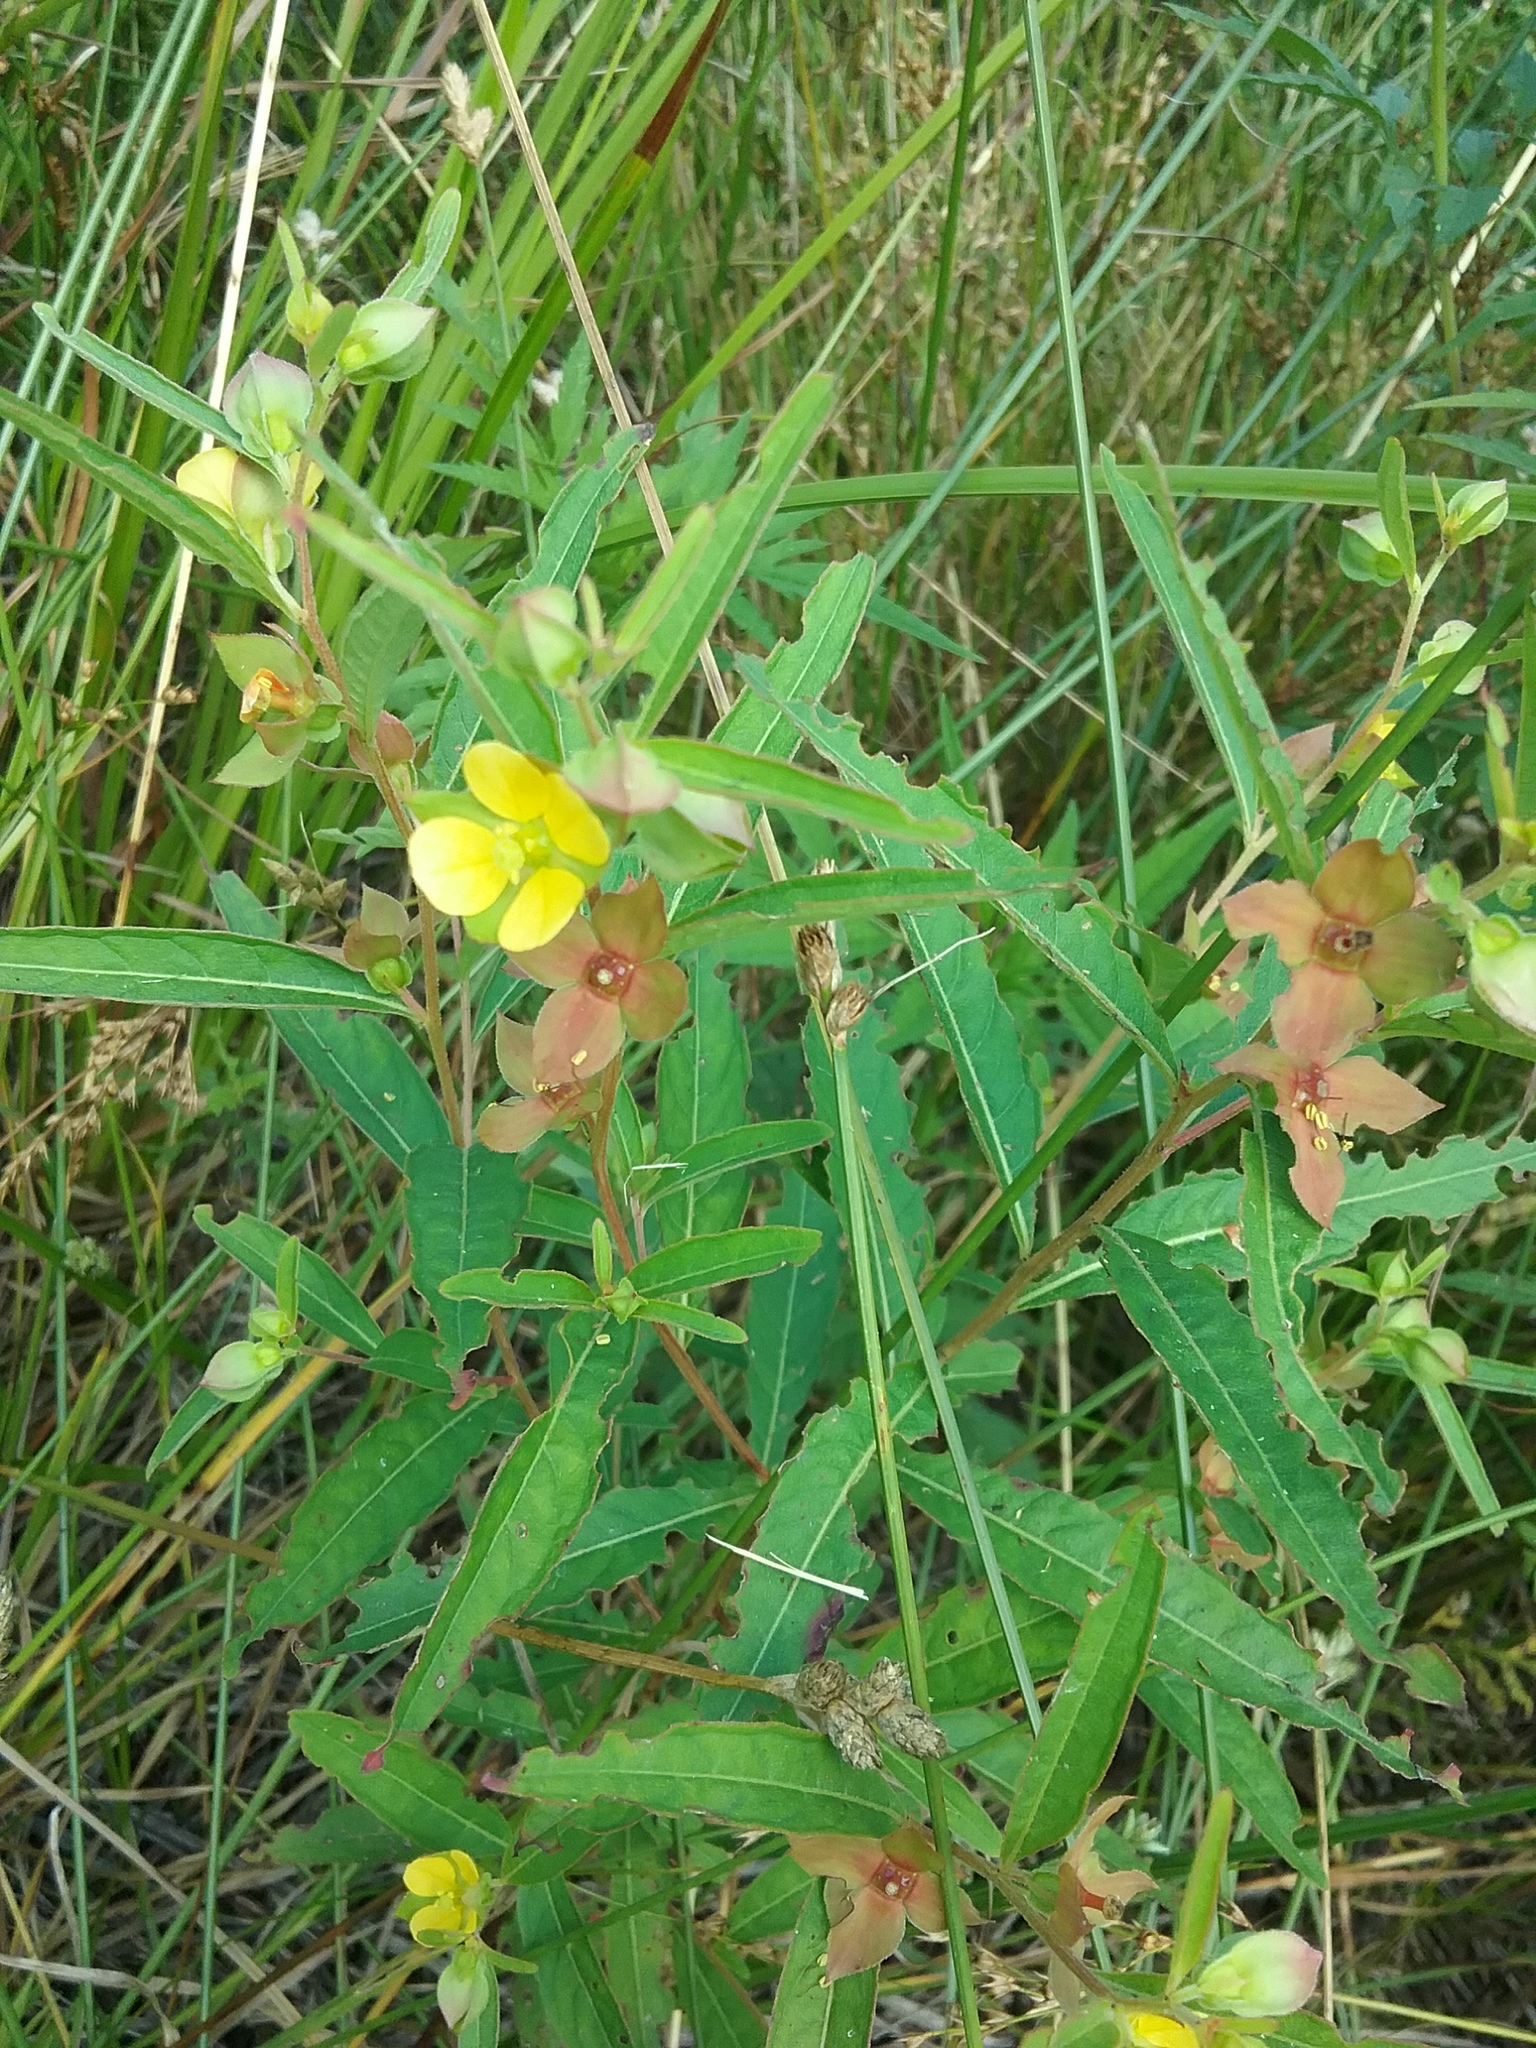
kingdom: Plantae
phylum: Tracheophyta
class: Magnoliopsida
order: Myrtales
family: Onagraceae
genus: Ludwigia
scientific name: Ludwigia alternifolia
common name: Rattlebox
